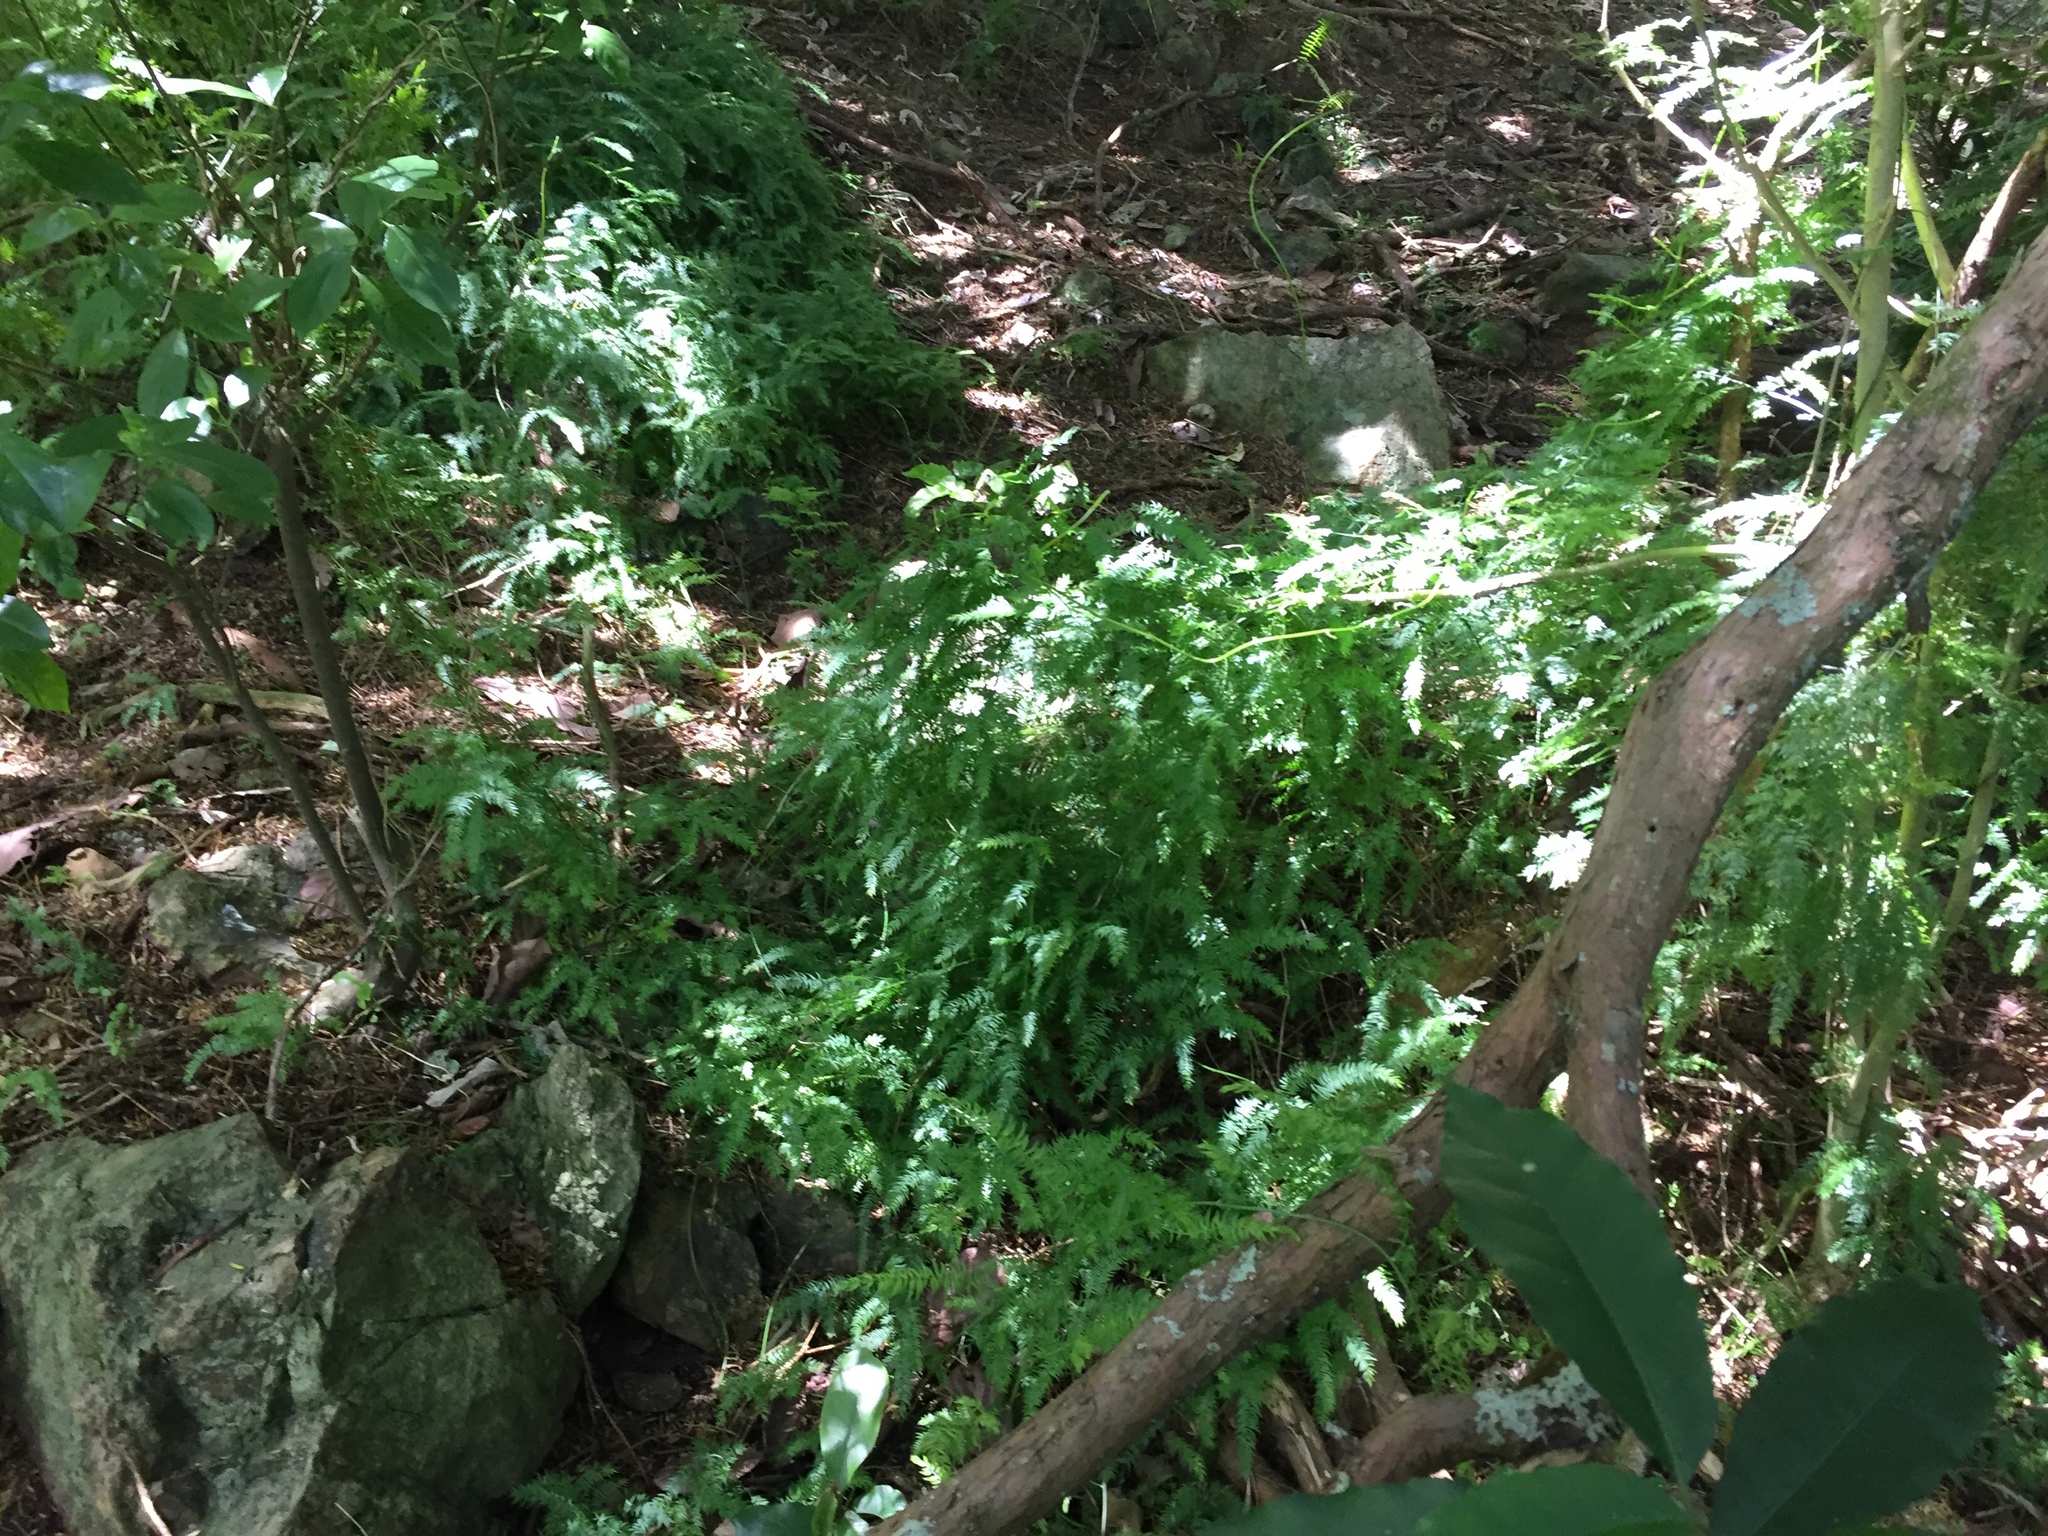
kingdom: Plantae
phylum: Tracheophyta
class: Liliopsida
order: Asparagales
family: Asparagaceae
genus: Asparagus
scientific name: Asparagus scandens
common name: Asparagus-fern
